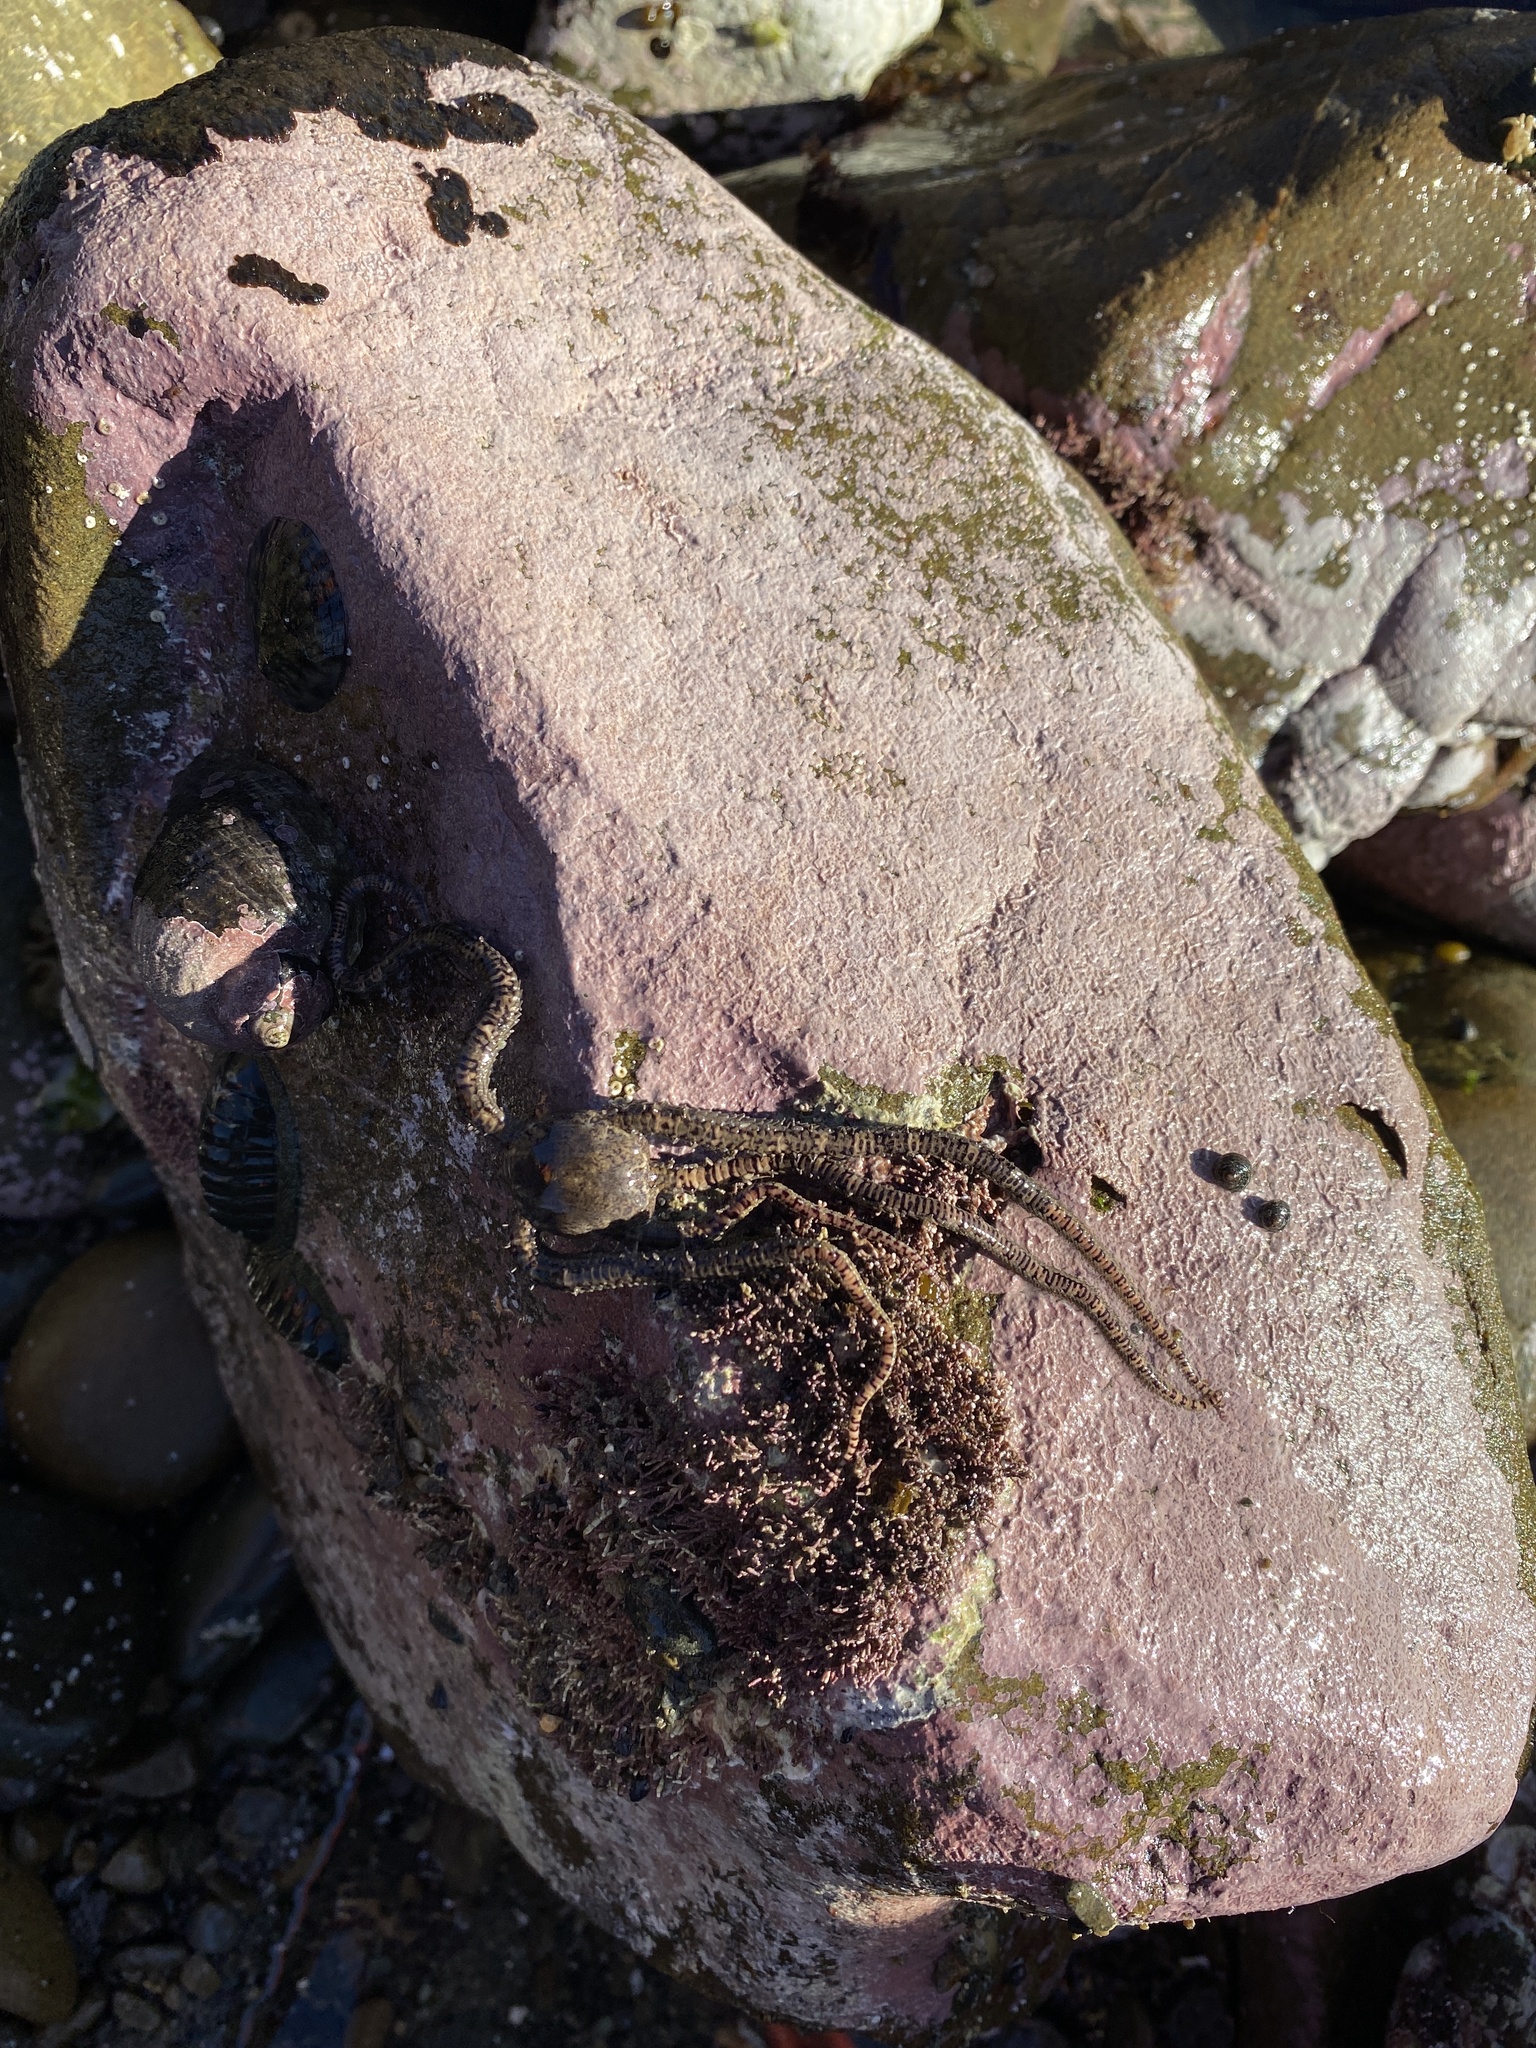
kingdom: Animalia
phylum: Echinodermata
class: Ophiuroidea
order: Amphilepidida
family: Ophionereididae
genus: Ophionereis
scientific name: Ophionereis fasciata
